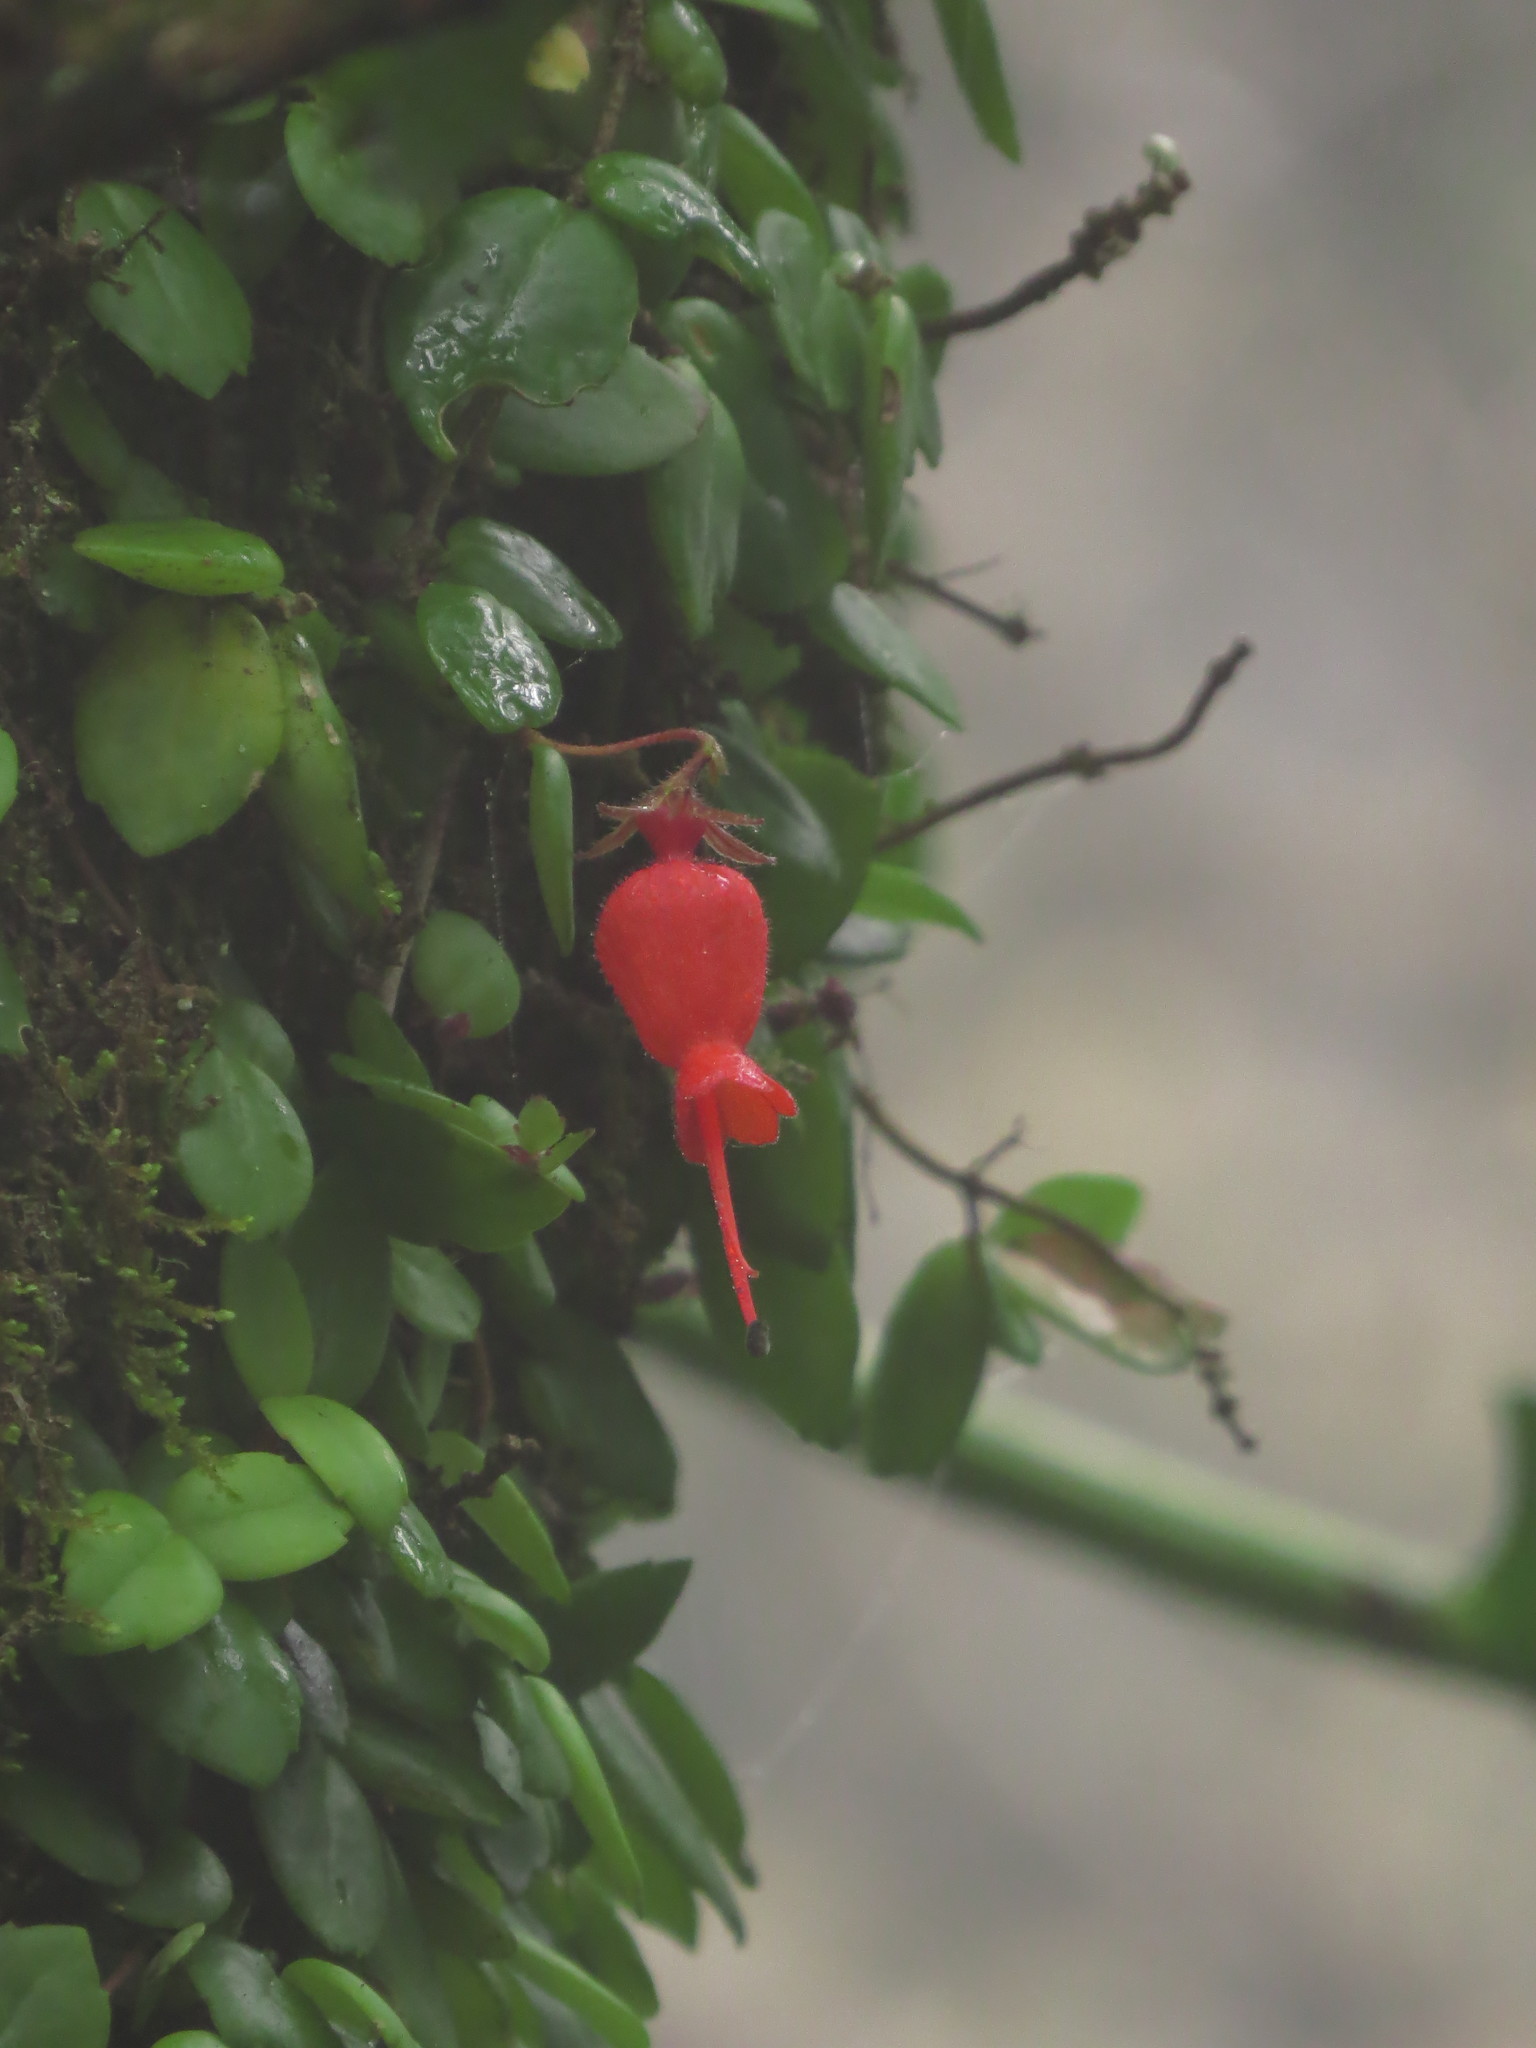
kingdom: Plantae
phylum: Tracheophyta
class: Magnoliopsida
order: Lamiales
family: Gesneriaceae
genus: Sarmienta
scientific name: Sarmienta scandens
